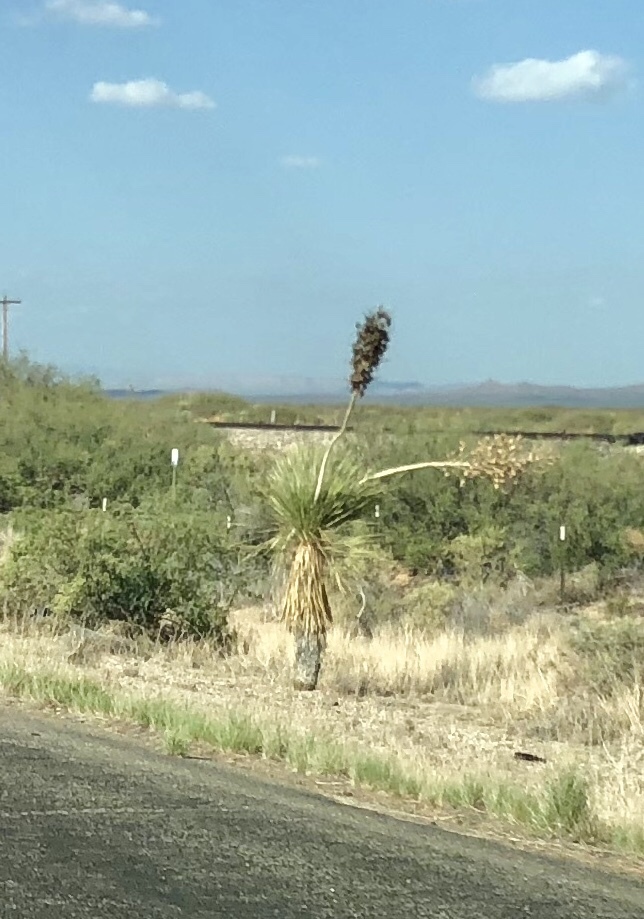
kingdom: Plantae
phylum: Tracheophyta
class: Liliopsida
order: Asparagales
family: Asparagaceae
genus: Yucca
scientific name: Yucca elata
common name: Palmella
